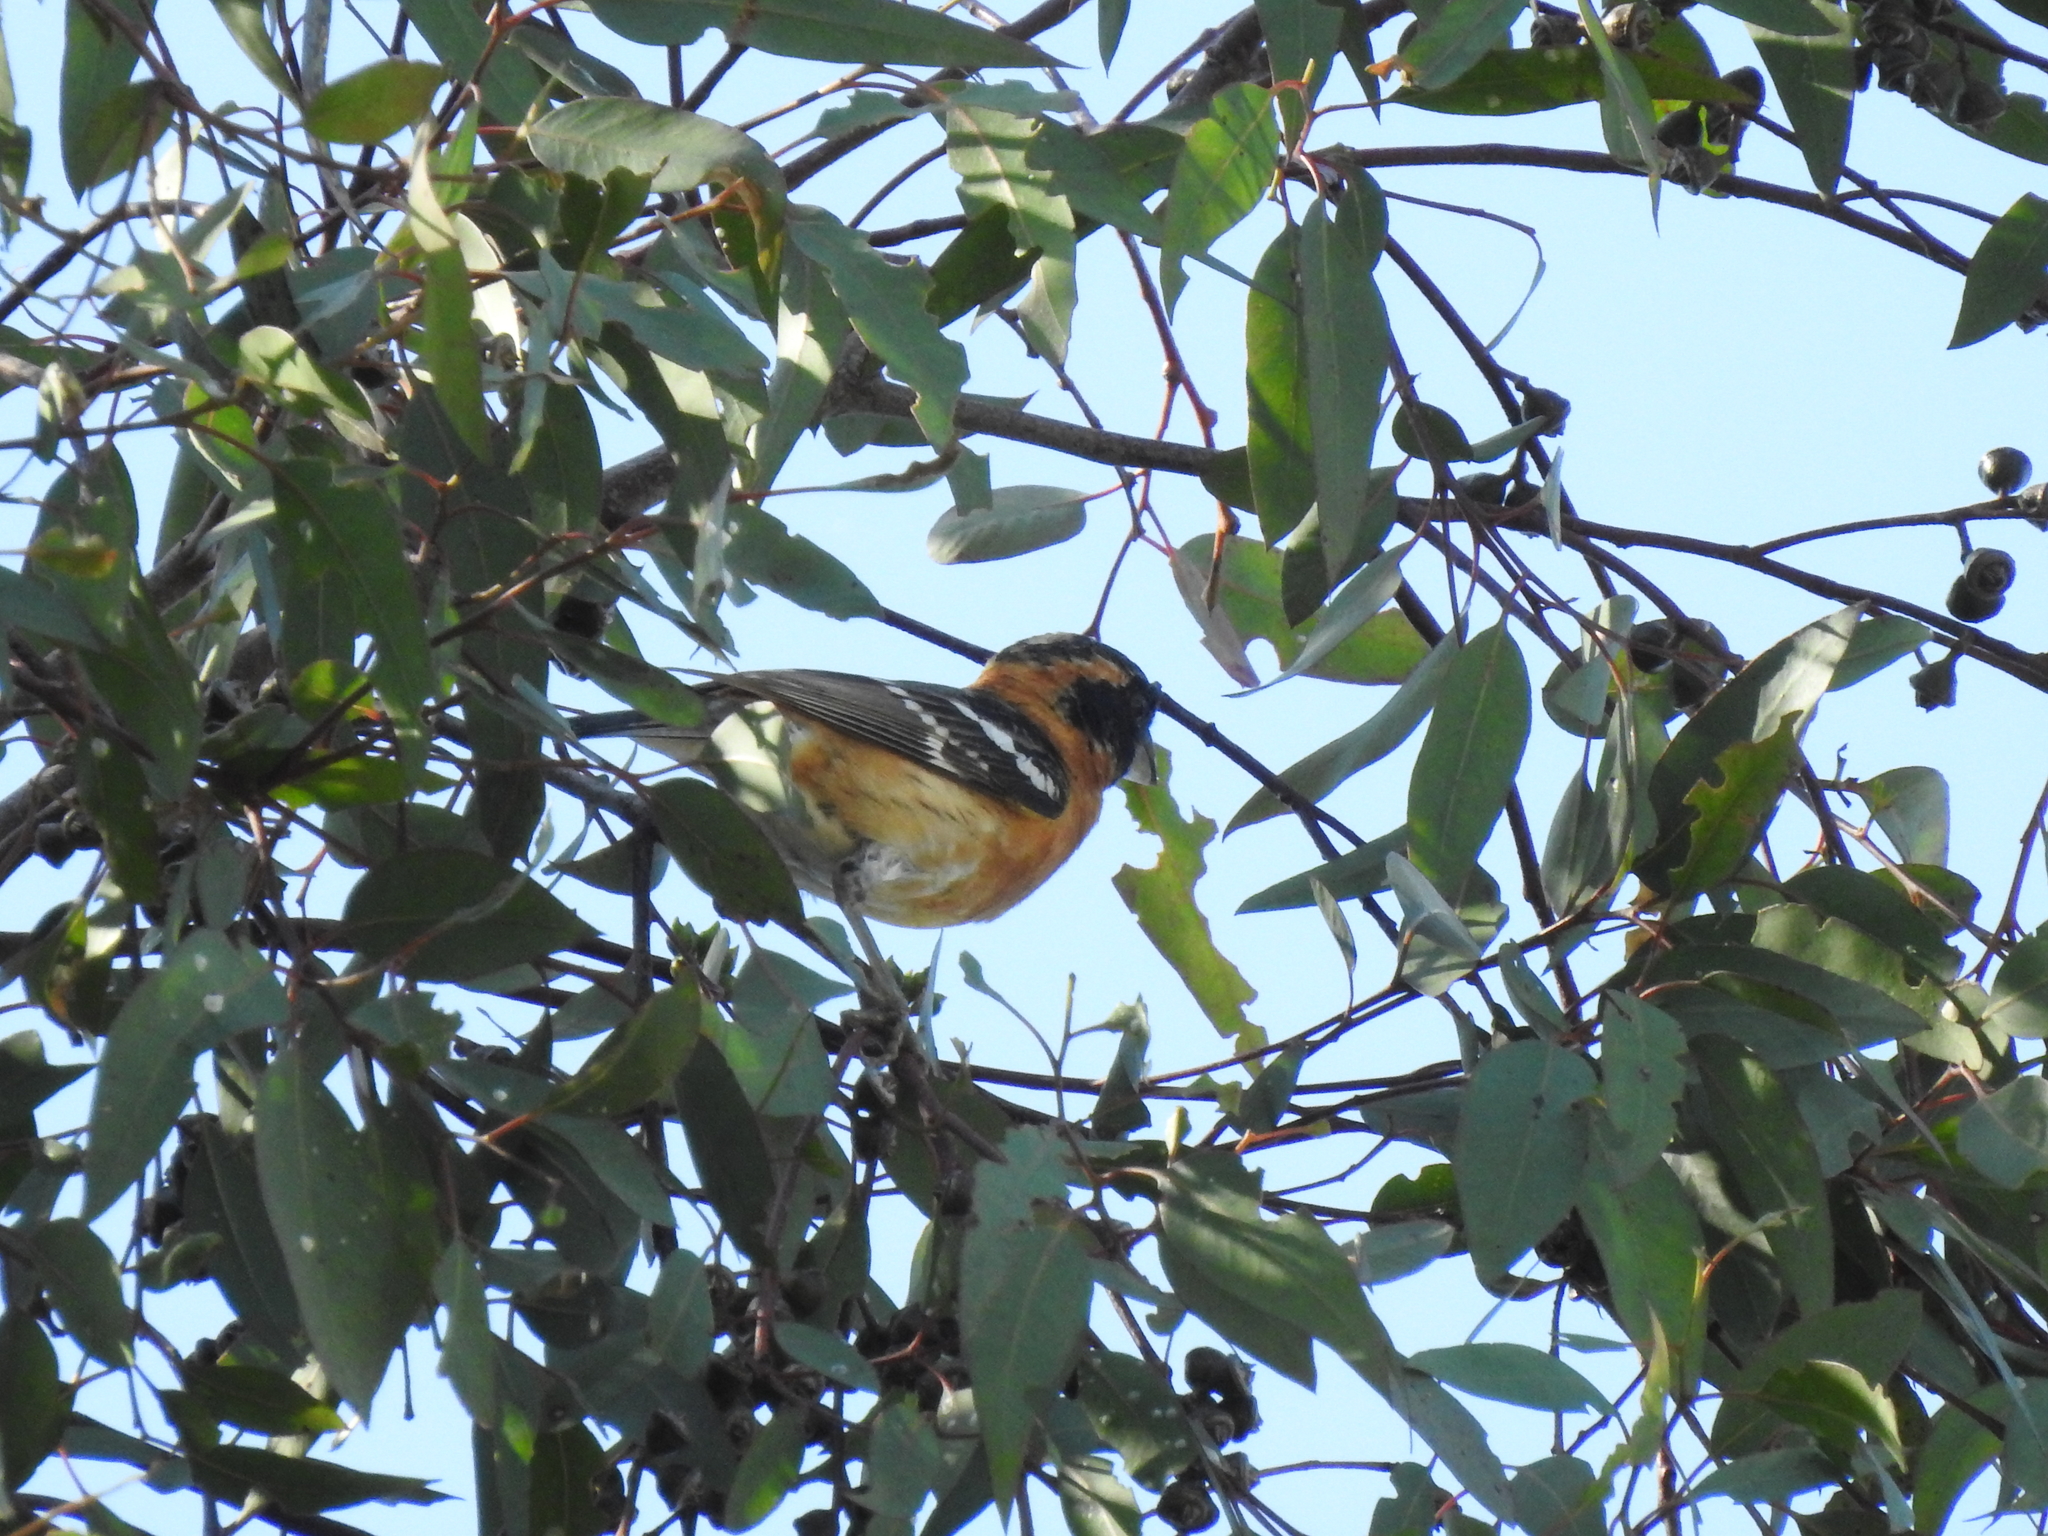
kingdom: Animalia
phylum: Chordata
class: Aves
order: Passeriformes
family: Cardinalidae
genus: Pheucticus
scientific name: Pheucticus melanocephalus
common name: Black-headed grosbeak
